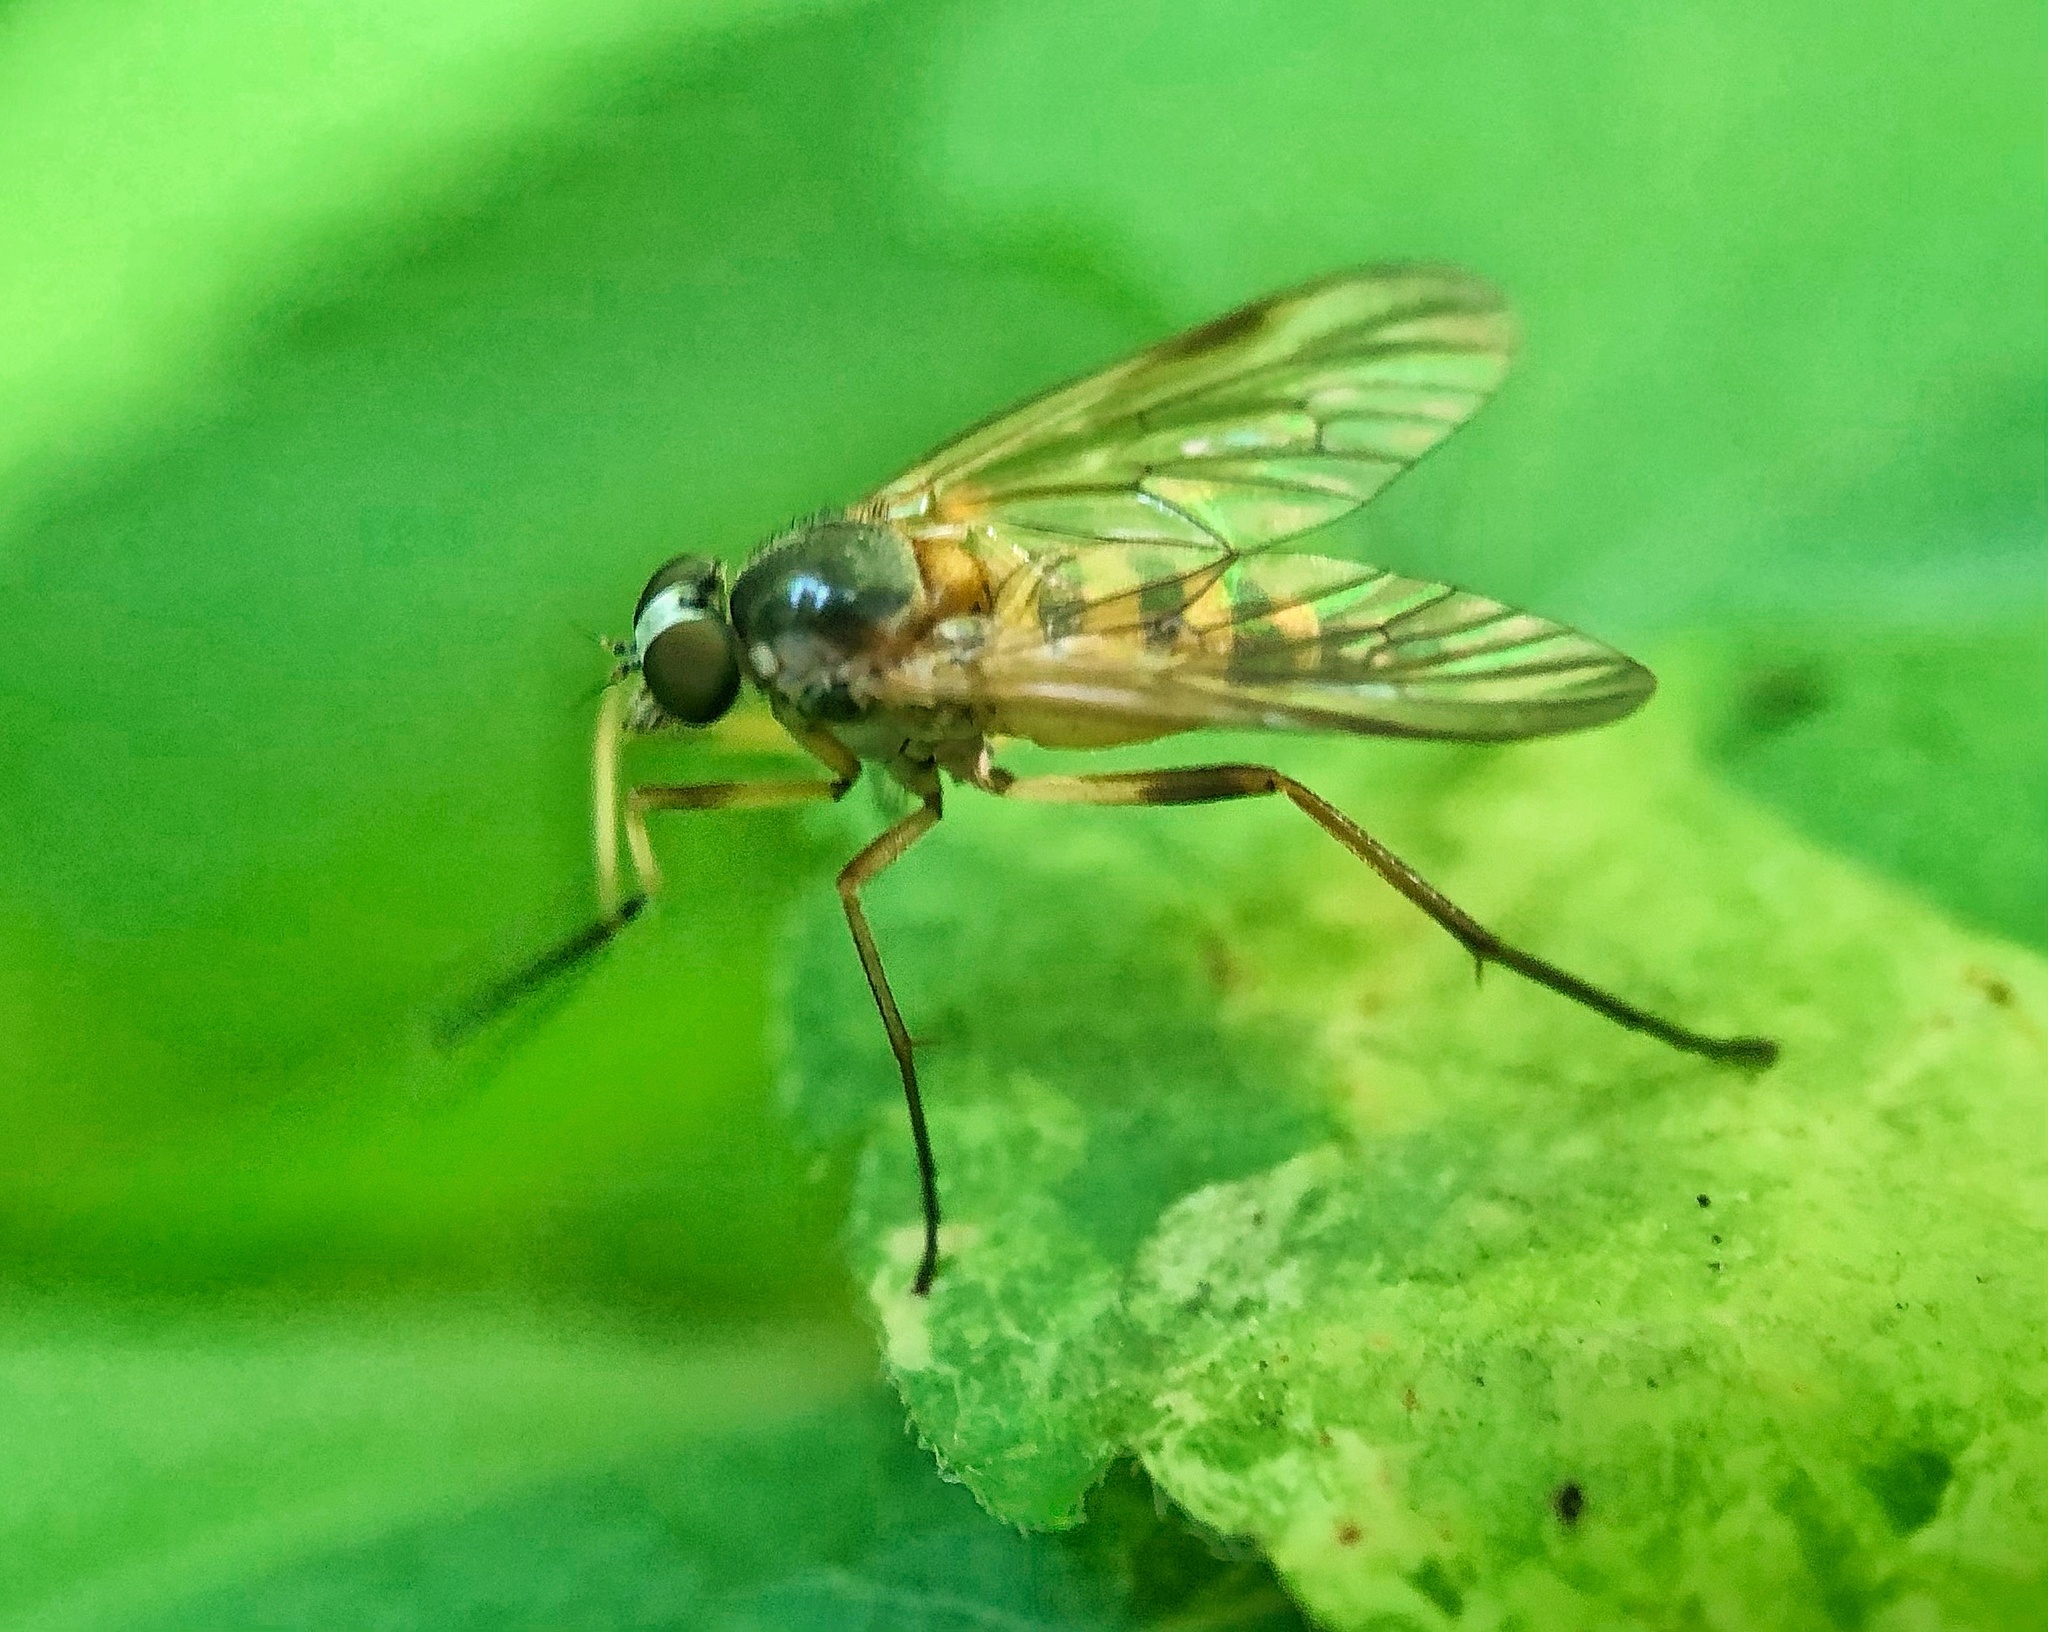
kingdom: Animalia
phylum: Arthropoda
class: Insecta
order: Diptera
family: Rhagionidae
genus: Rhagio
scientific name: Rhagio hirta
